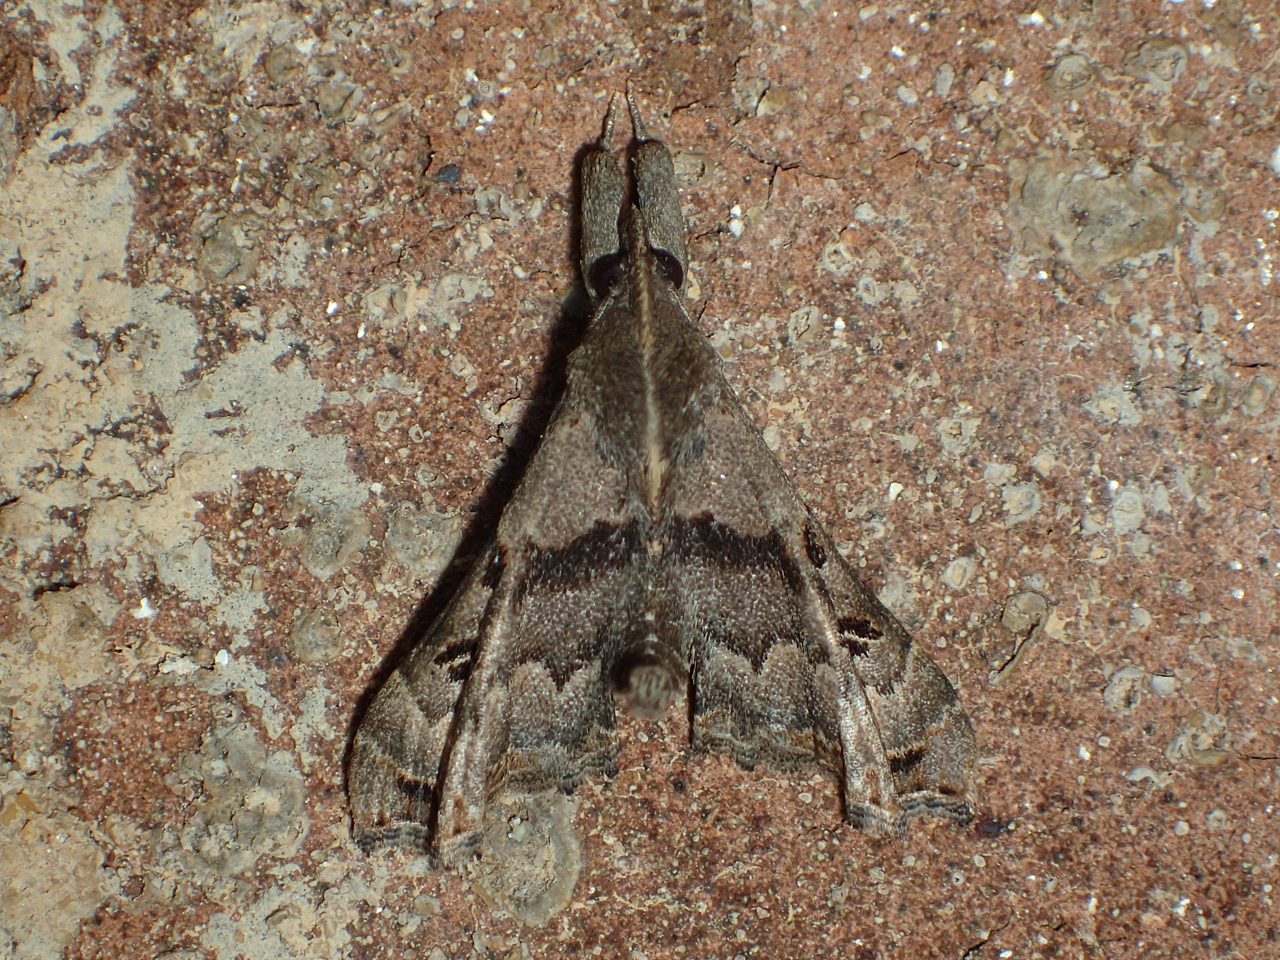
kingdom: Animalia
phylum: Arthropoda
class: Insecta
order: Lepidoptera
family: Erebidae
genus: Palthis
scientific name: Palthis asopialis
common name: Faint-spotted palthis moth
